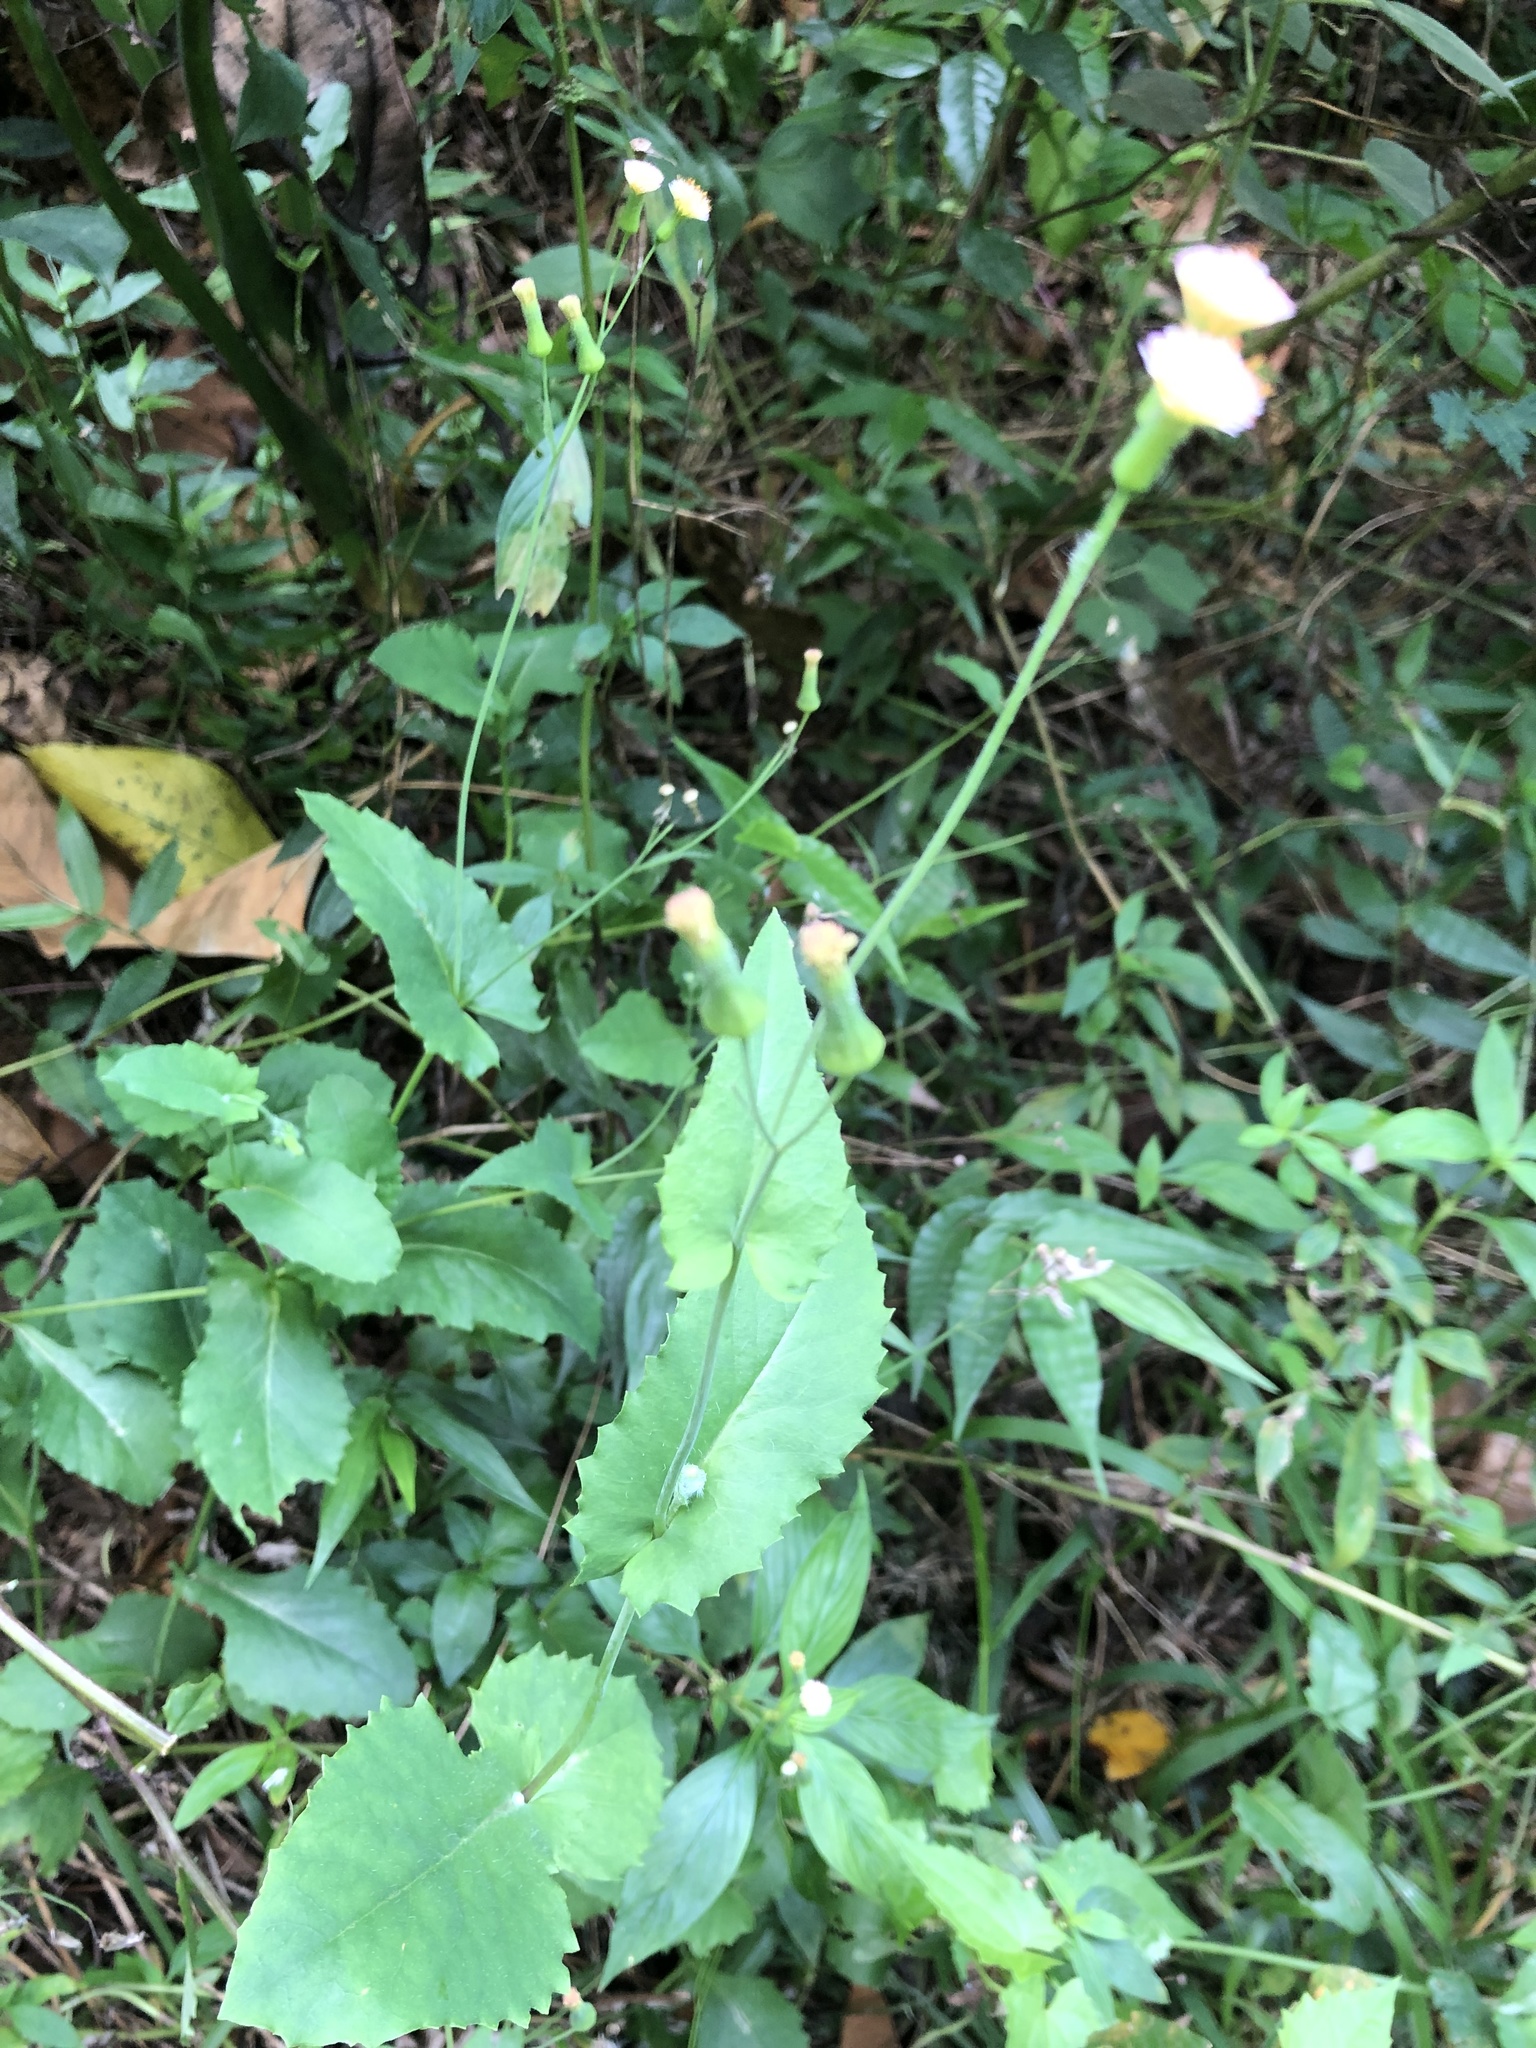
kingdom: Plantae
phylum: Tracheophyta
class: Magnoliopsida
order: Asterales
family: Asteraceae
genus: Emilia
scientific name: Emilia praetermissa
